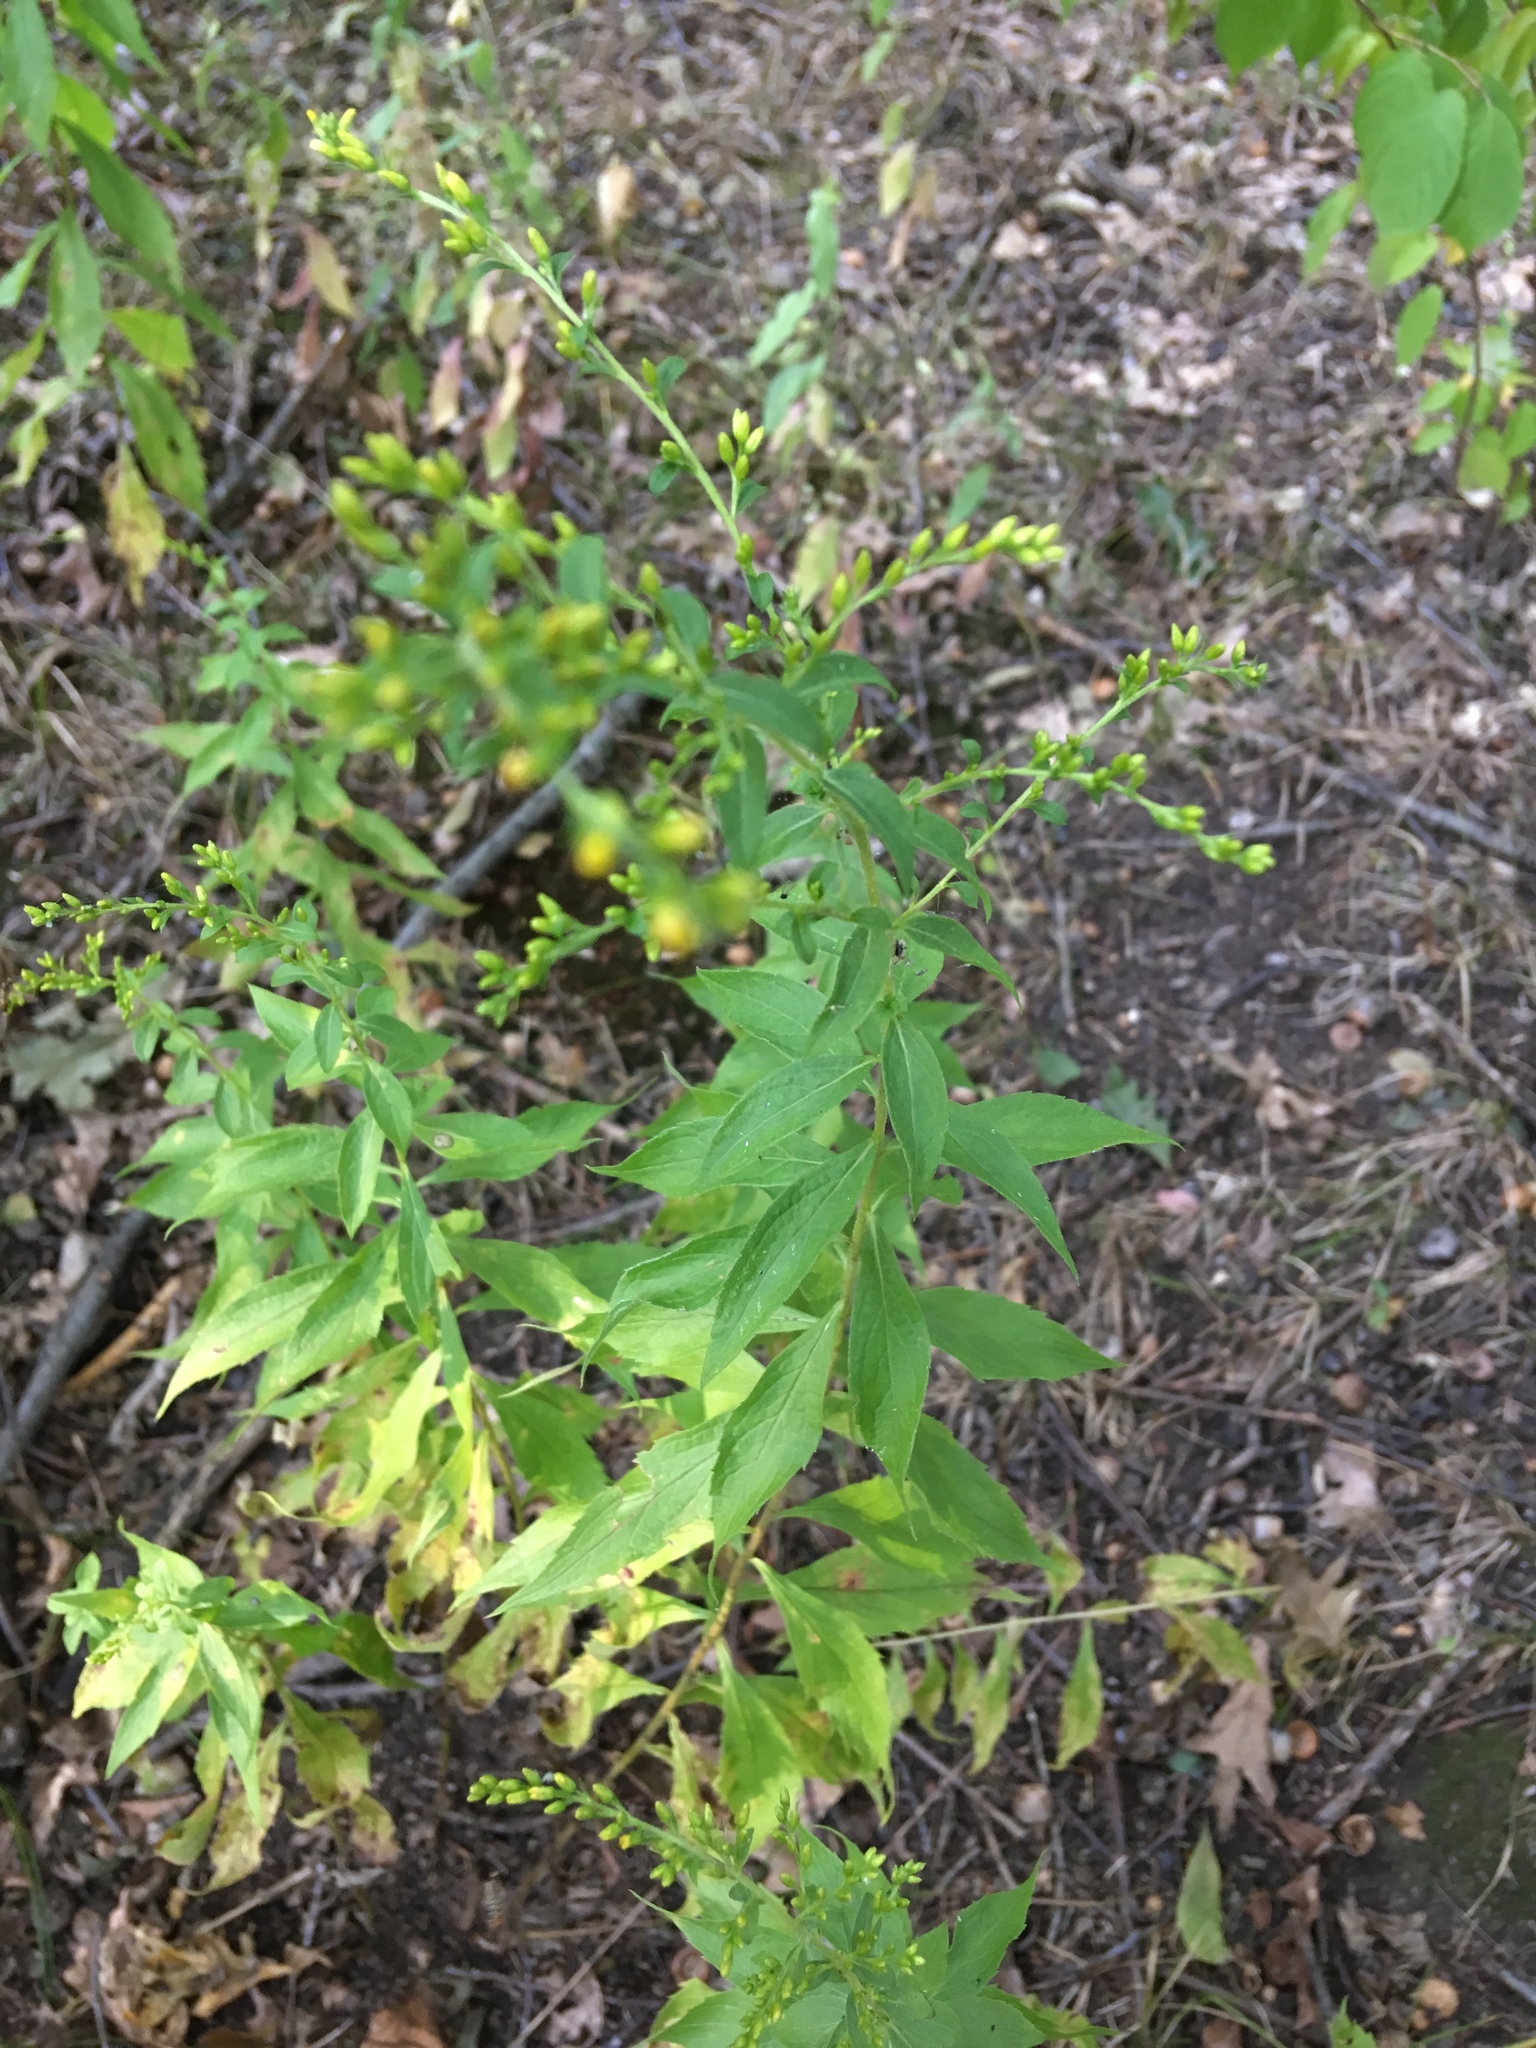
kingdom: Plantae
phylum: Tracheophyta
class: Magnoliopsida
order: Asterales
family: Asteraceae
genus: Solidago
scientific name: Solidago rugosa
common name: Rough-stemmed goldenrod
